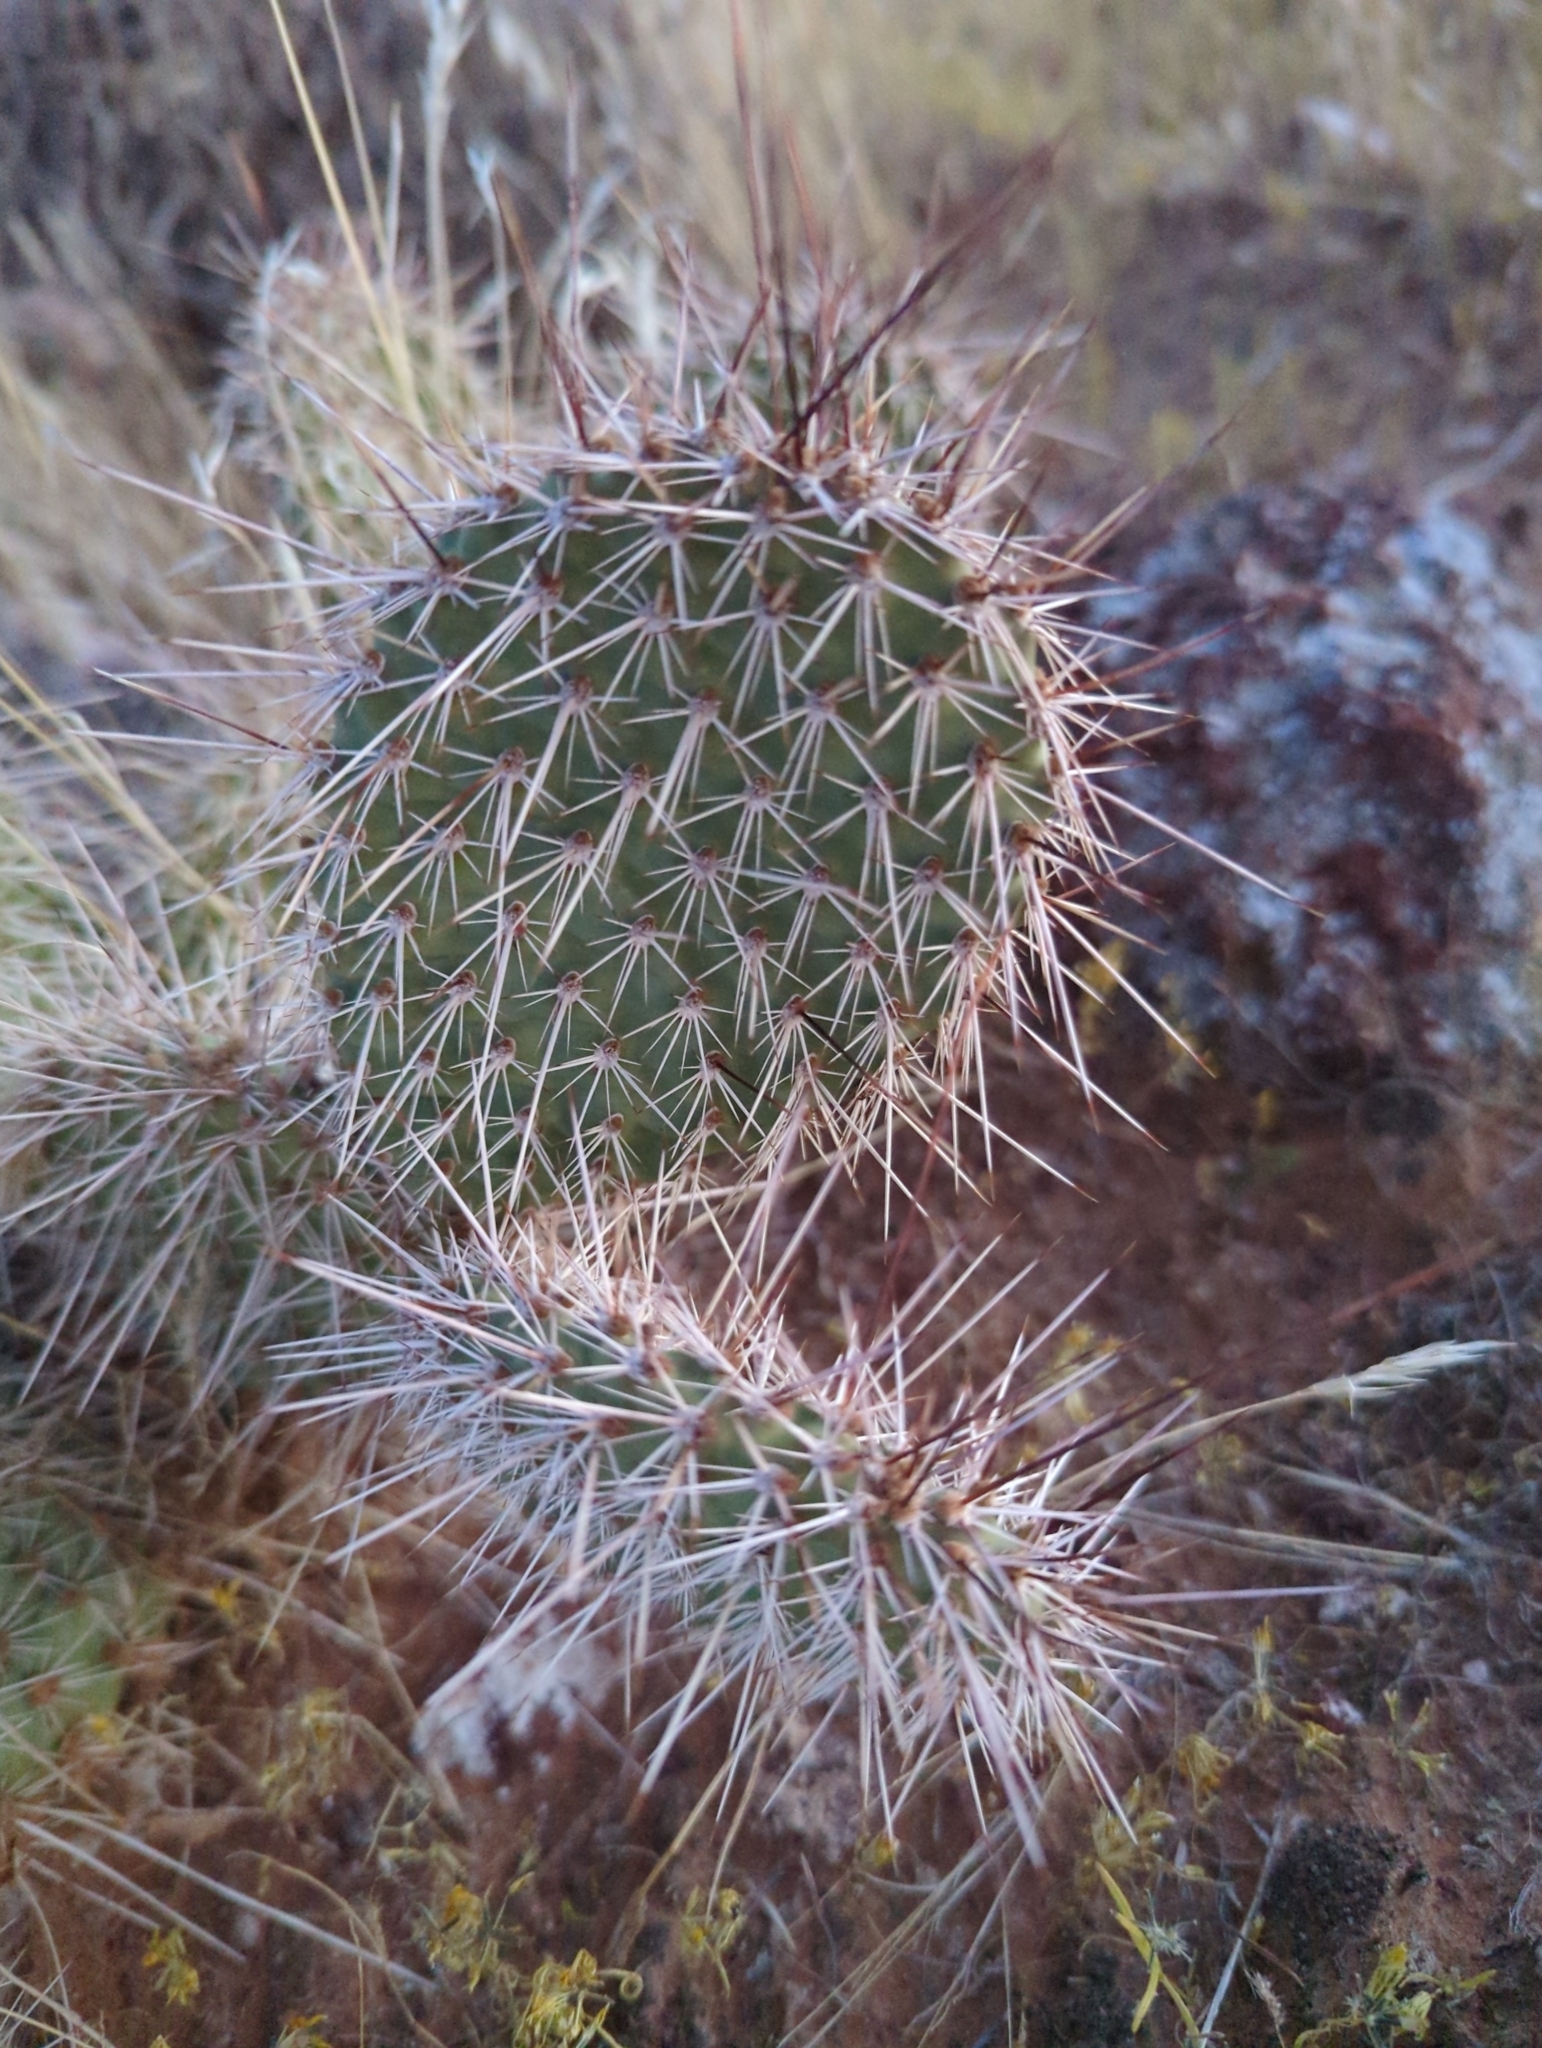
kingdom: Plantae
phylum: Tracheophyta
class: Magnoliopsida
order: Caryophyllales
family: Cactaceae
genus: Opuntia
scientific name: Opuntia polyacantha
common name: Plains prickly-pear
